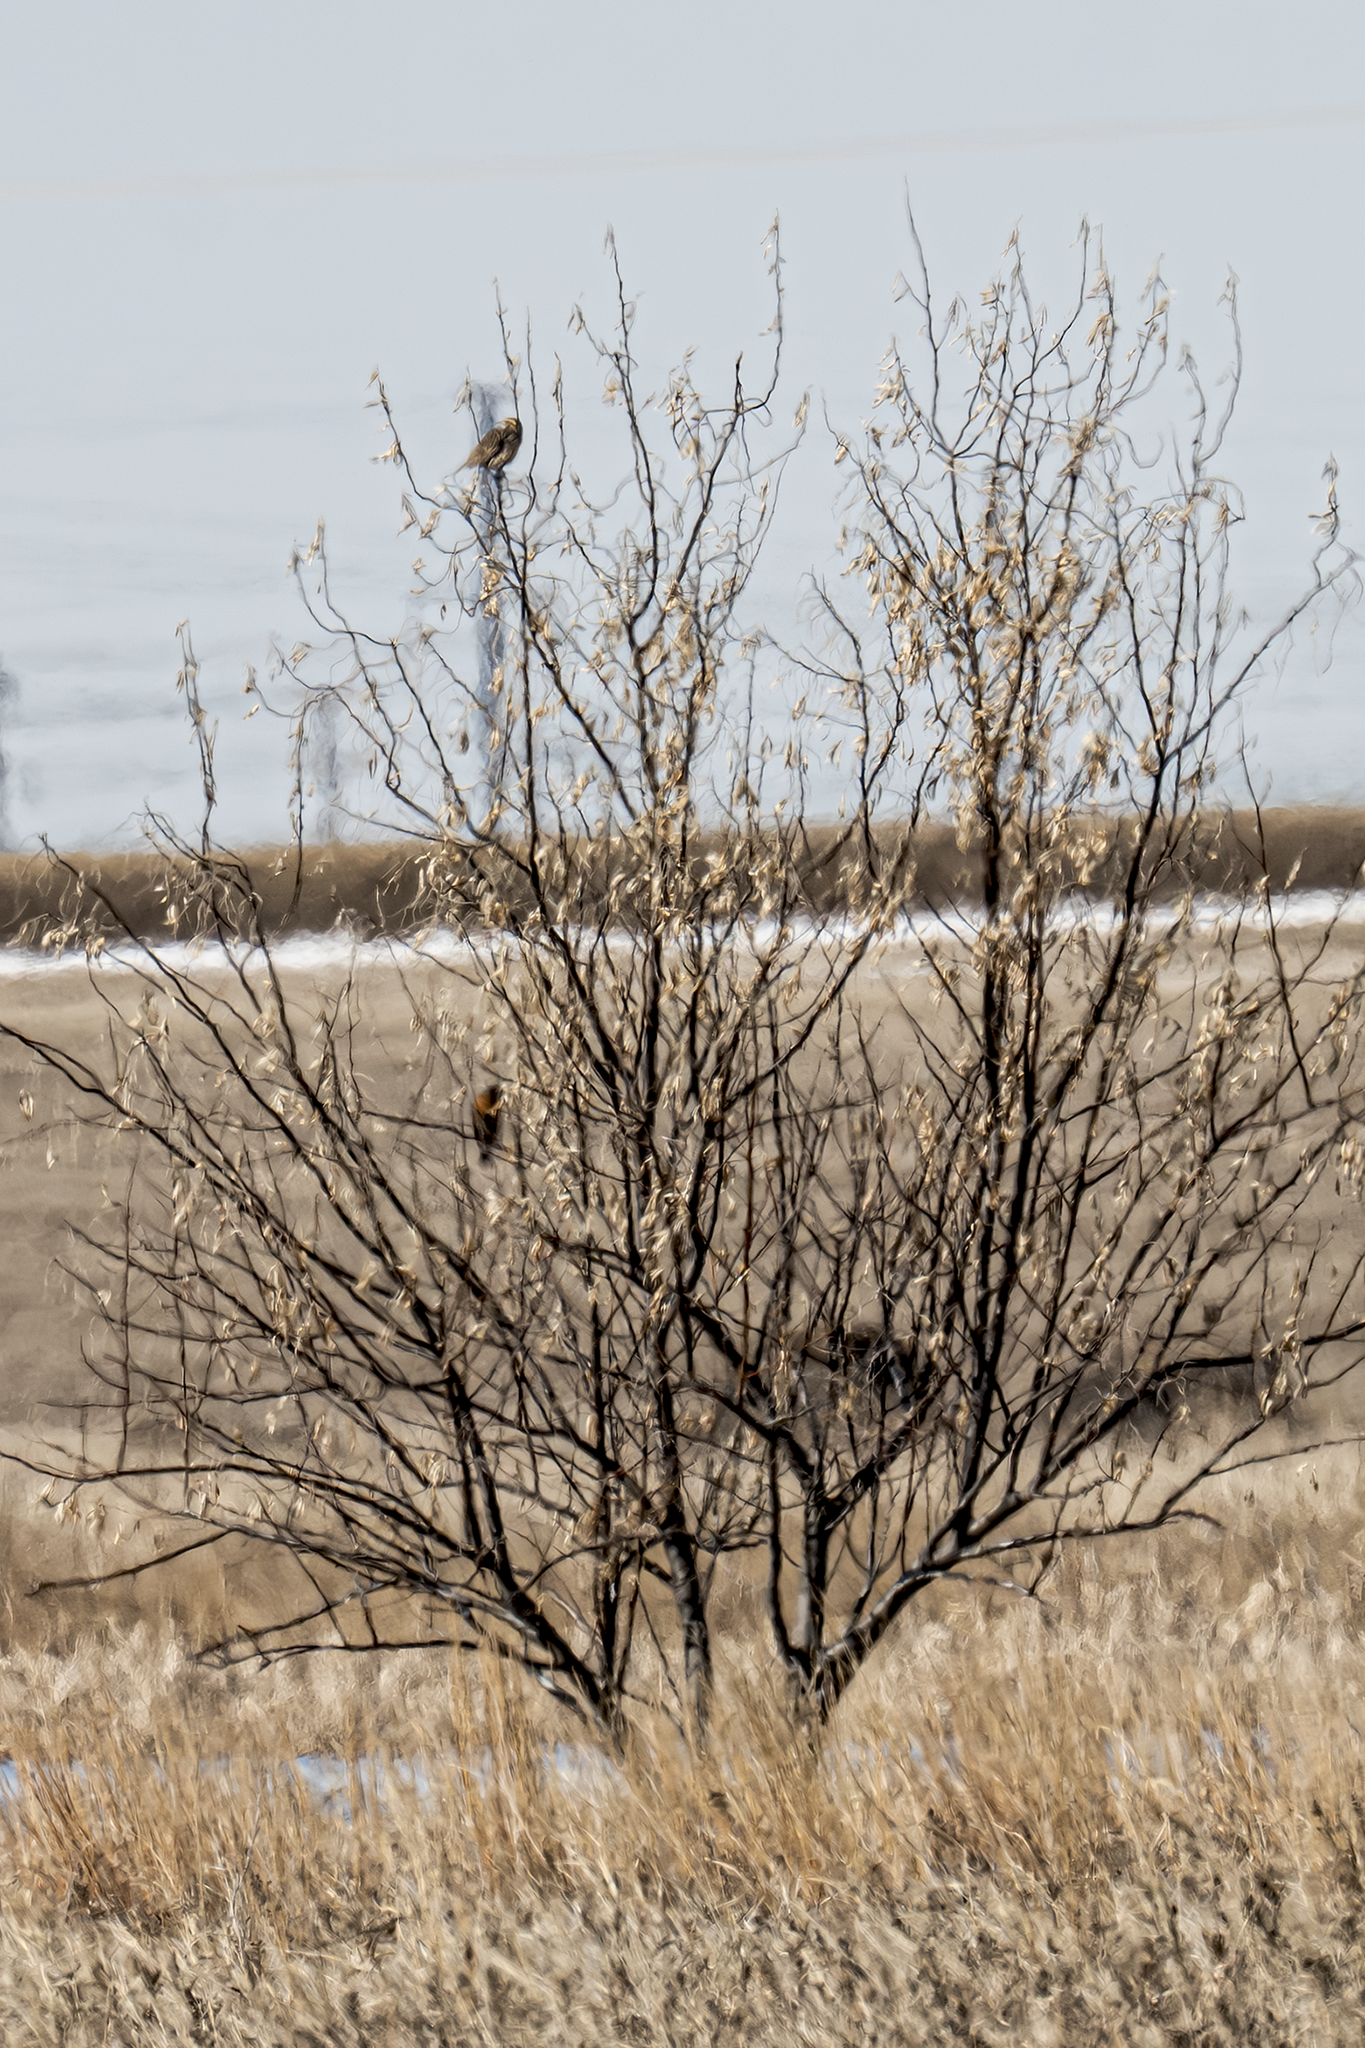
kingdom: Animalia
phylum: Chordata
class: Aves
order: Passeriformes
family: Icteridae
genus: Sturnella
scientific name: Sturnella neglecta
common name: Western meadowlark
